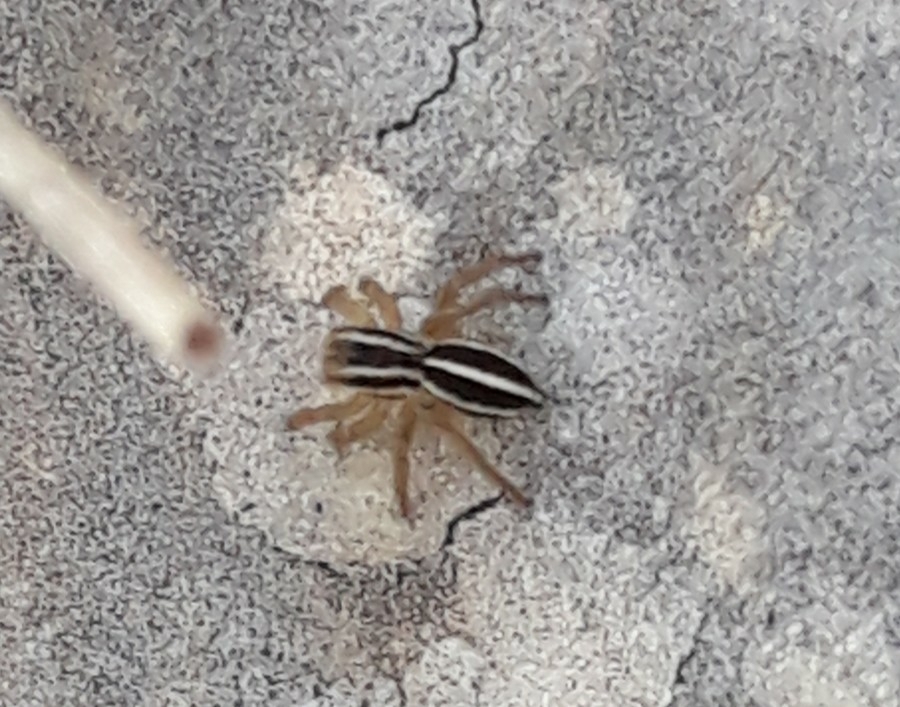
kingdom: Animalia
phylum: Arthropoda
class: Arachnida
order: Araneae
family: Salticidae
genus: Phlegra
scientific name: Phlegra bresnieri
